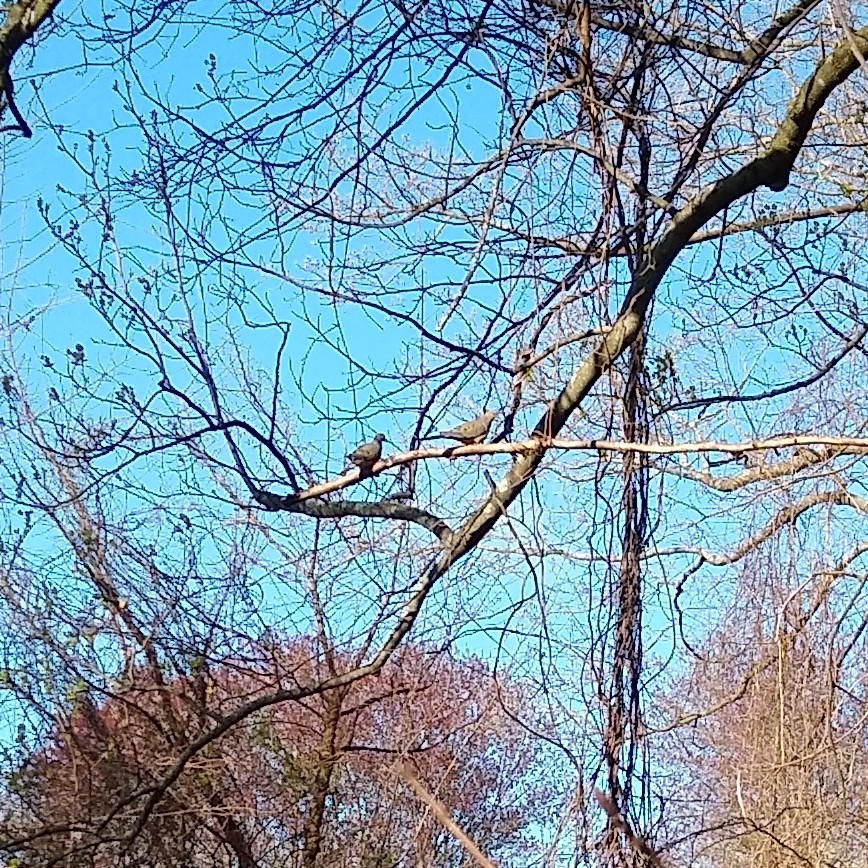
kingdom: Animalia
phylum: Chordata
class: Aves
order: Columbiformes
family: Columbidae
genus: Zenaida
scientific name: Zenaida macroura
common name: Mourning dove
